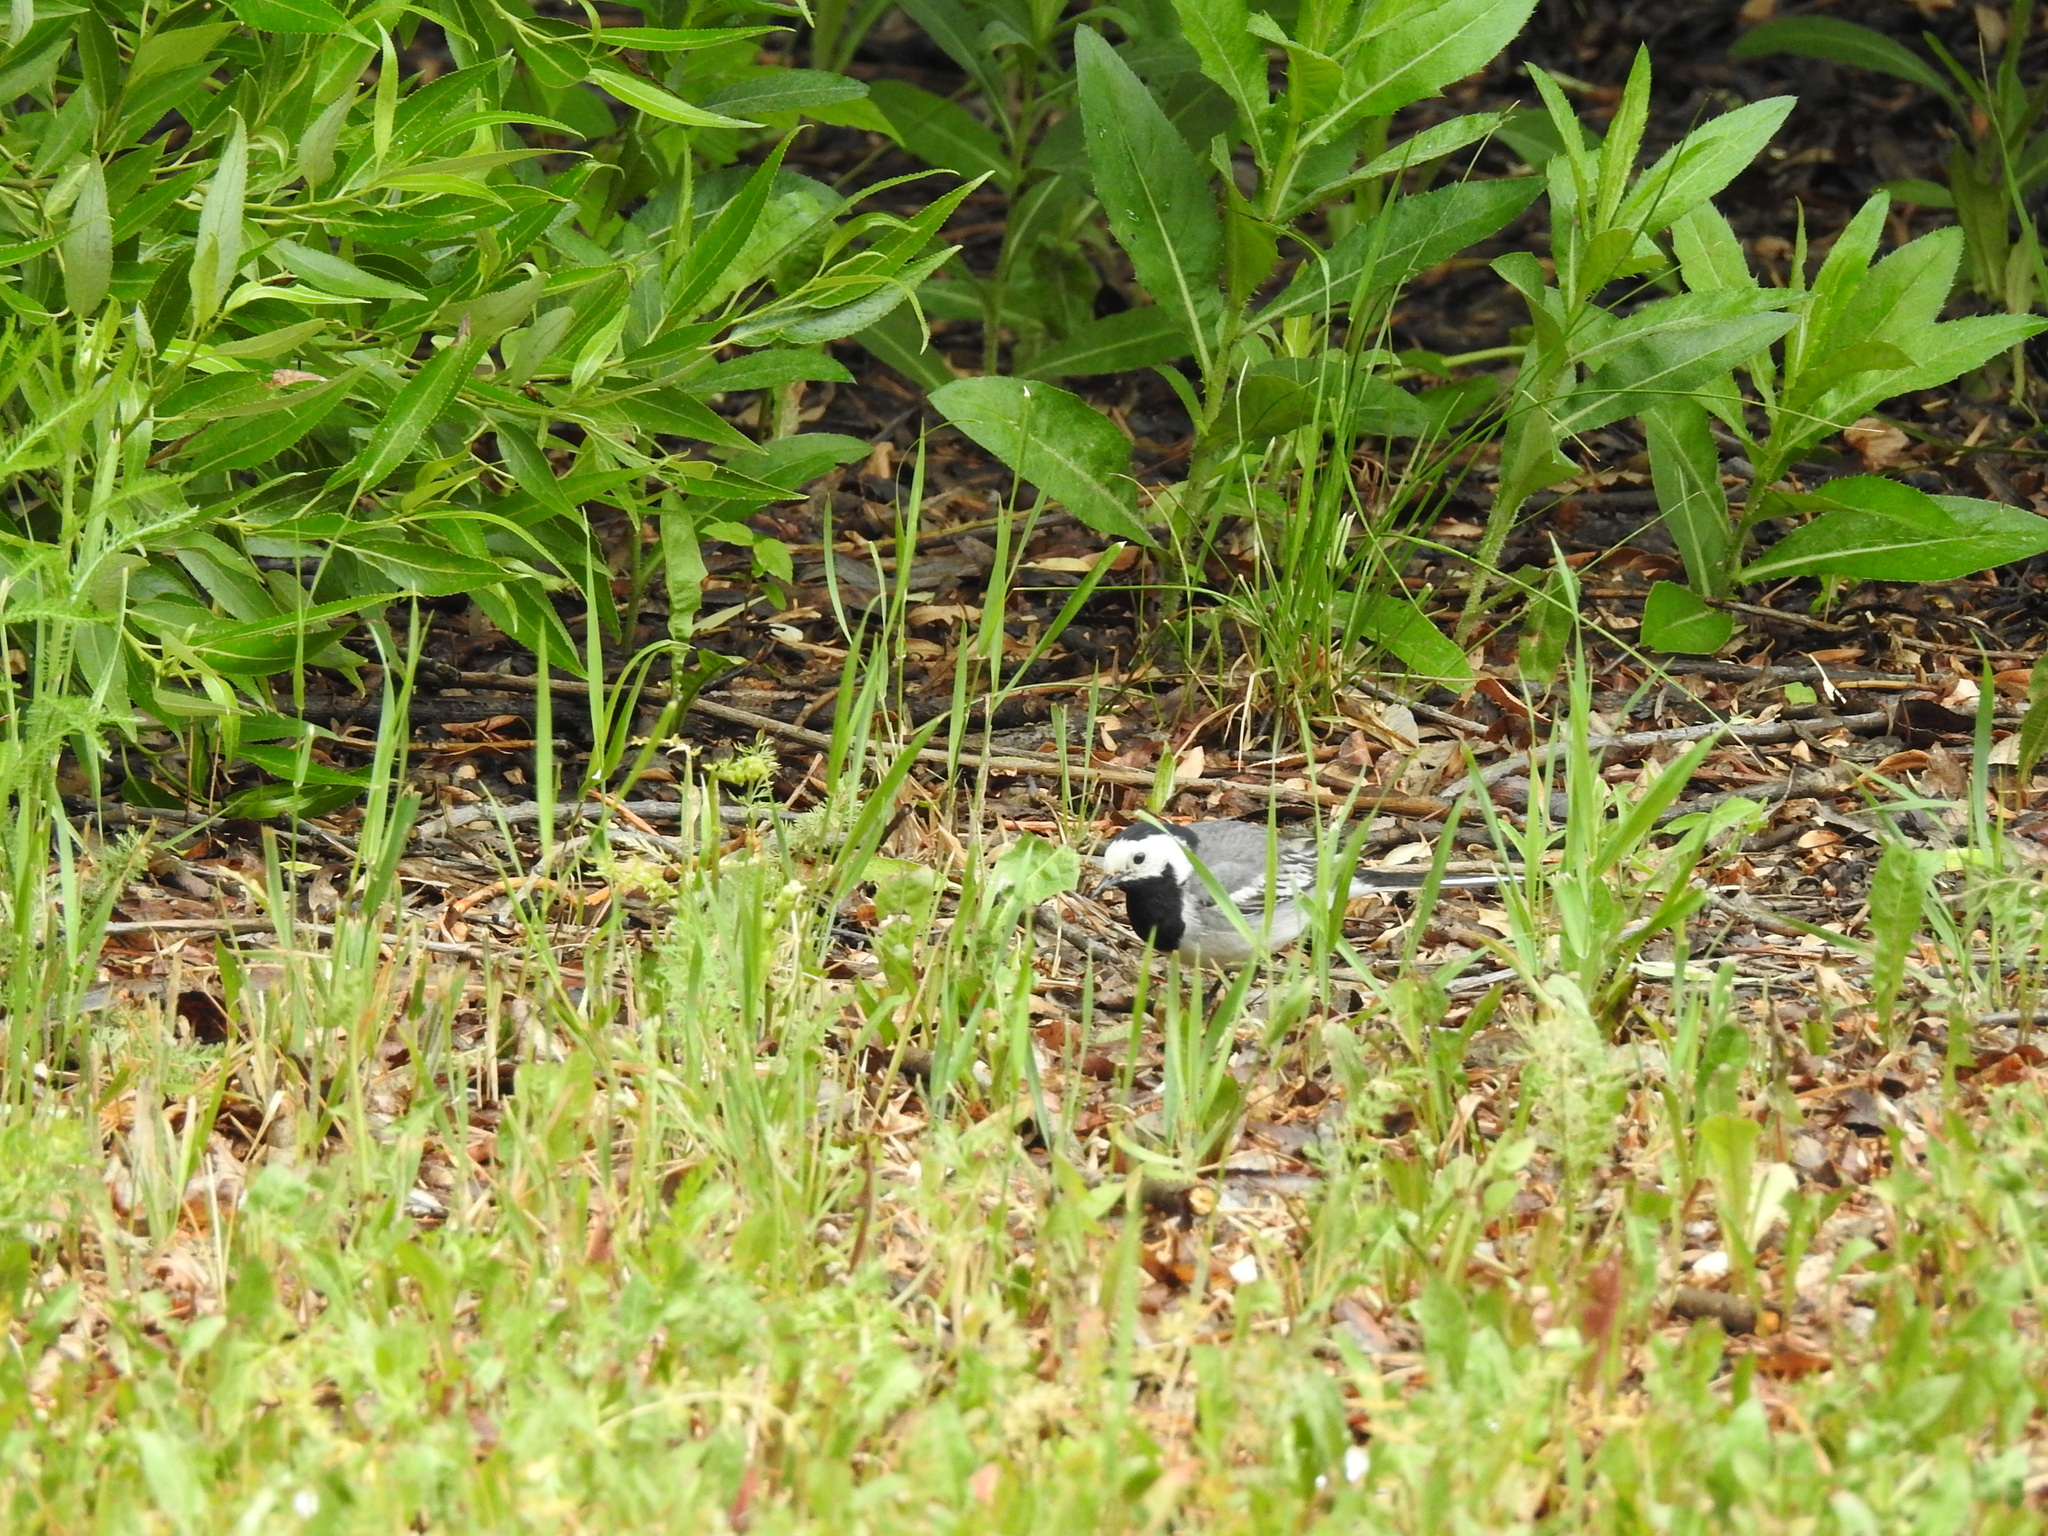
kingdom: Animalia
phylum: Chordata
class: Aves
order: Passeriformes
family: Motacillidae
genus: Motacilla
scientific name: Motacilla alba
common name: White wagtail
